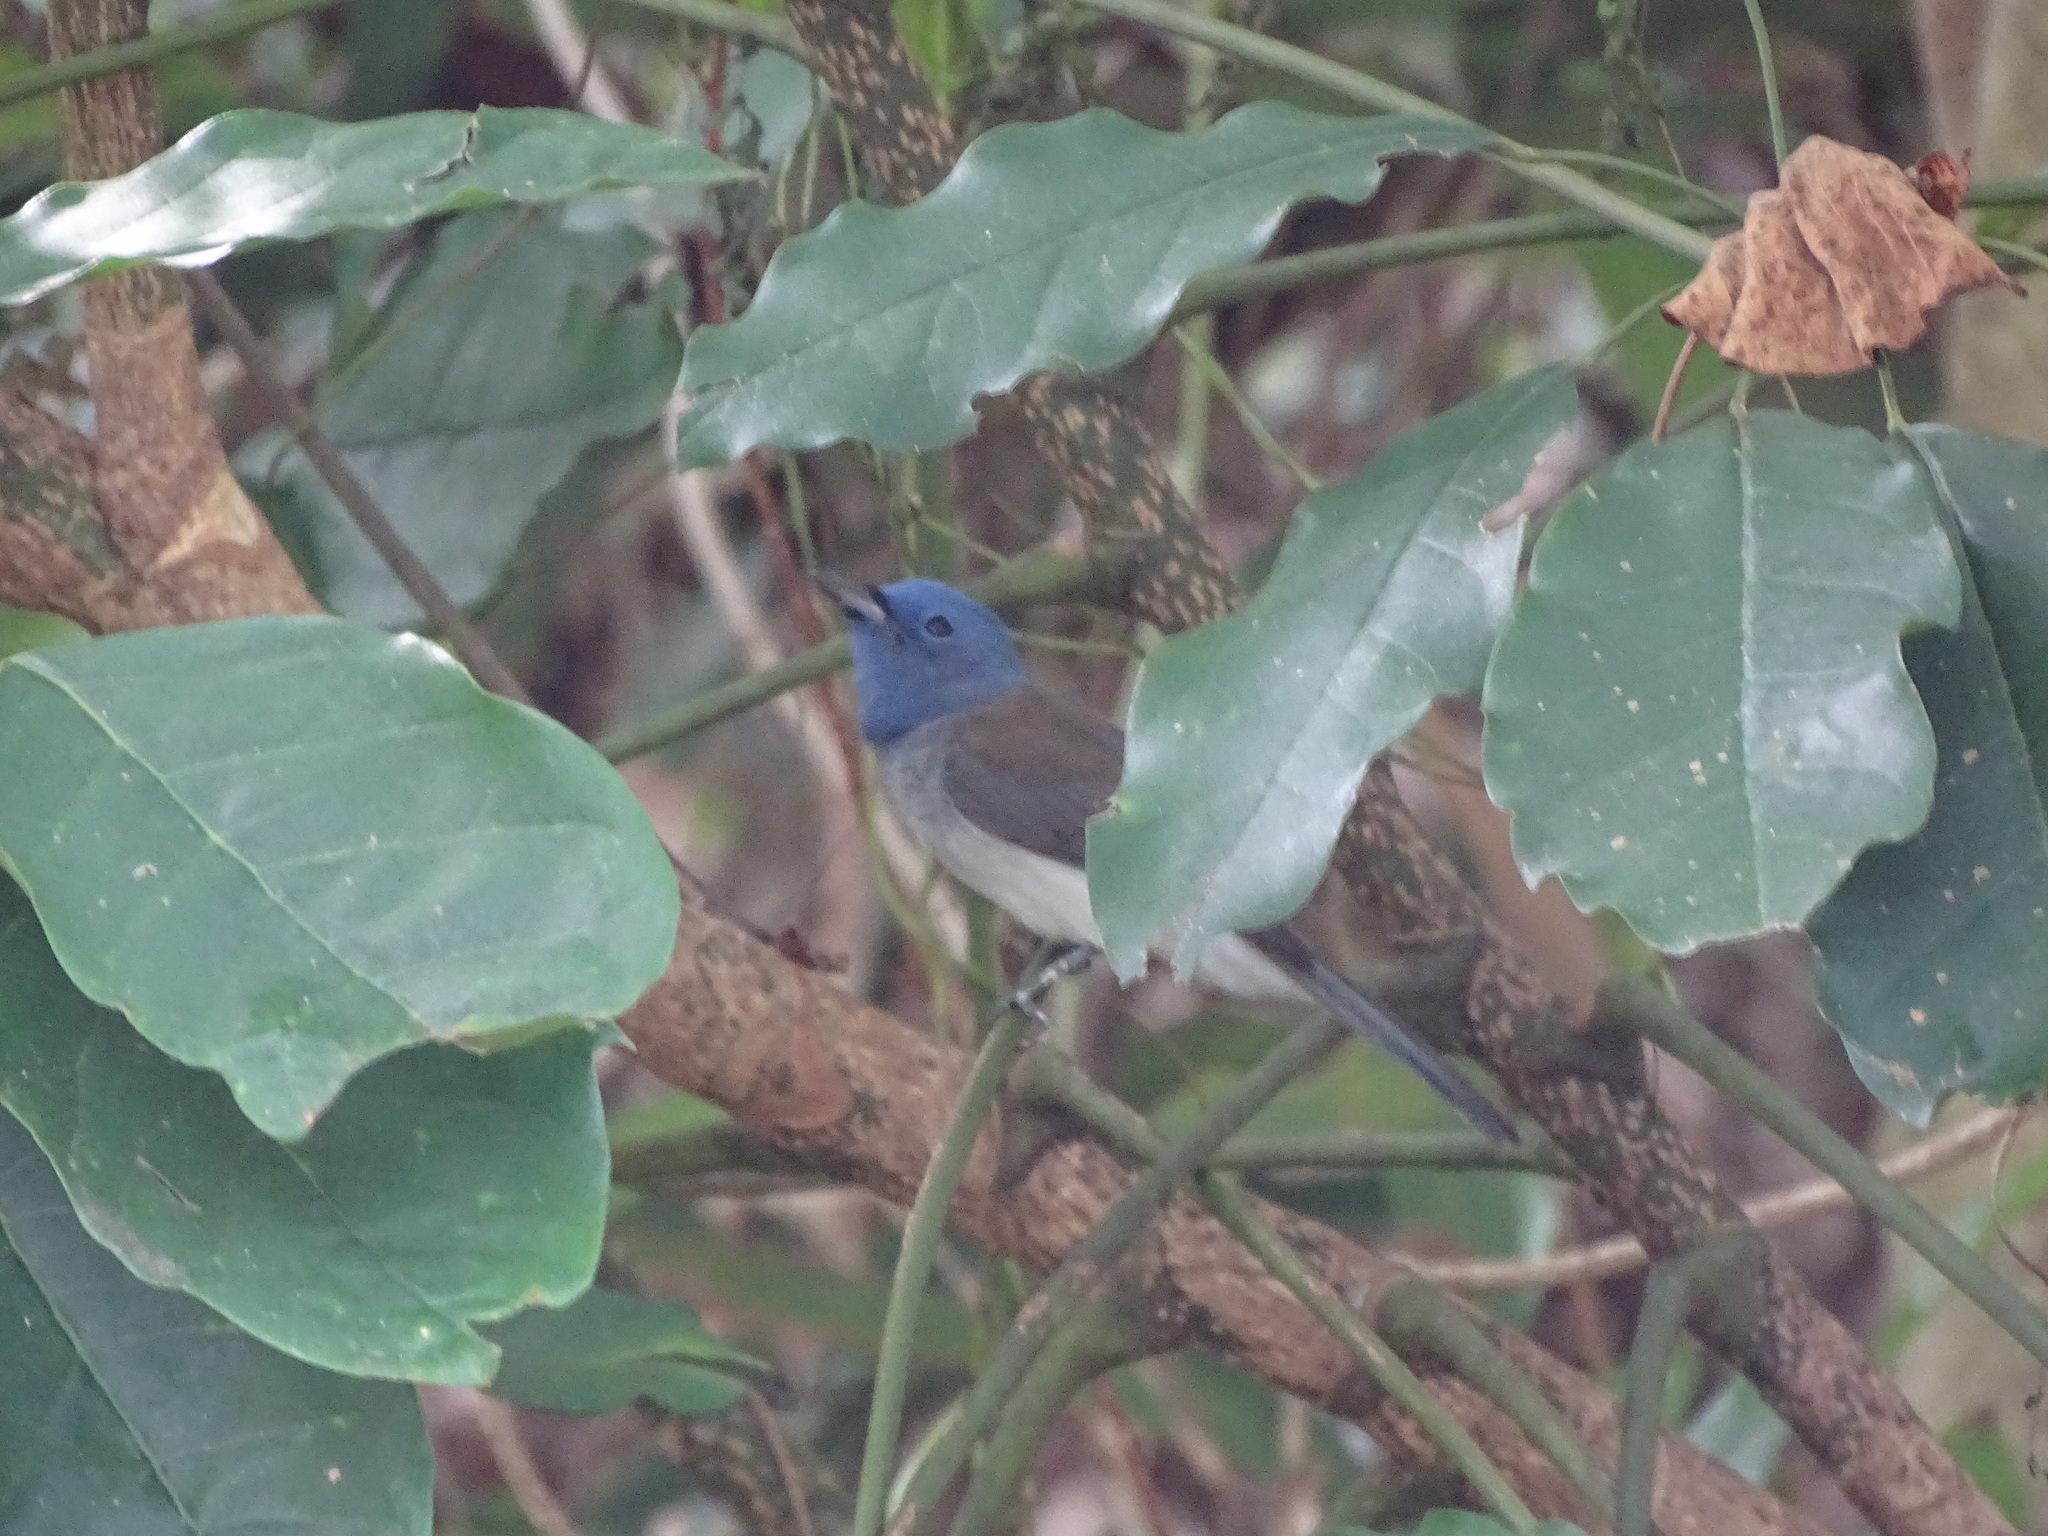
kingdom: Animalia
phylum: Chordata
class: Aves
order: Passeriformes
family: Monarchidae
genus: Hypothymis
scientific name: Hypothymis azurea
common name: Black-naped monarch
